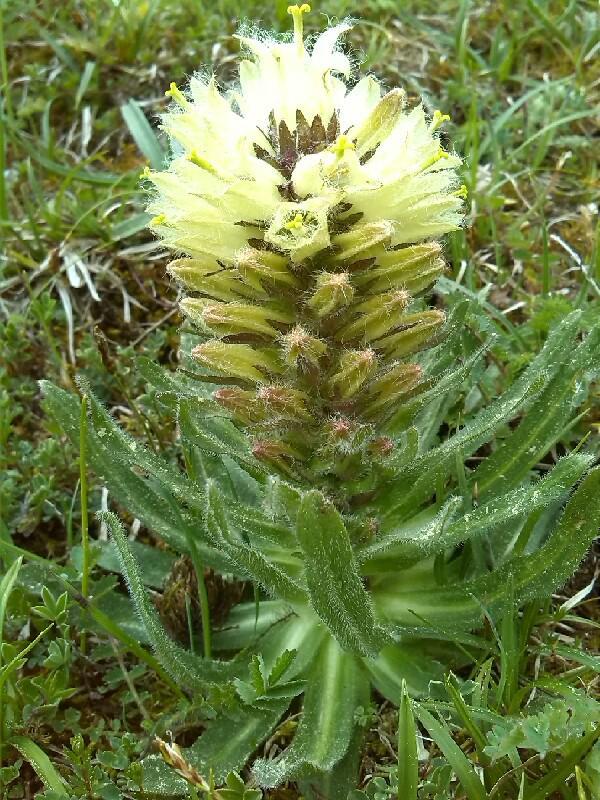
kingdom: Plantae
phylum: Tracheophyta
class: Magnoliopsida
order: Asterales
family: Campanulaceae
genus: Campanula
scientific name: Campanula thyrsoides
